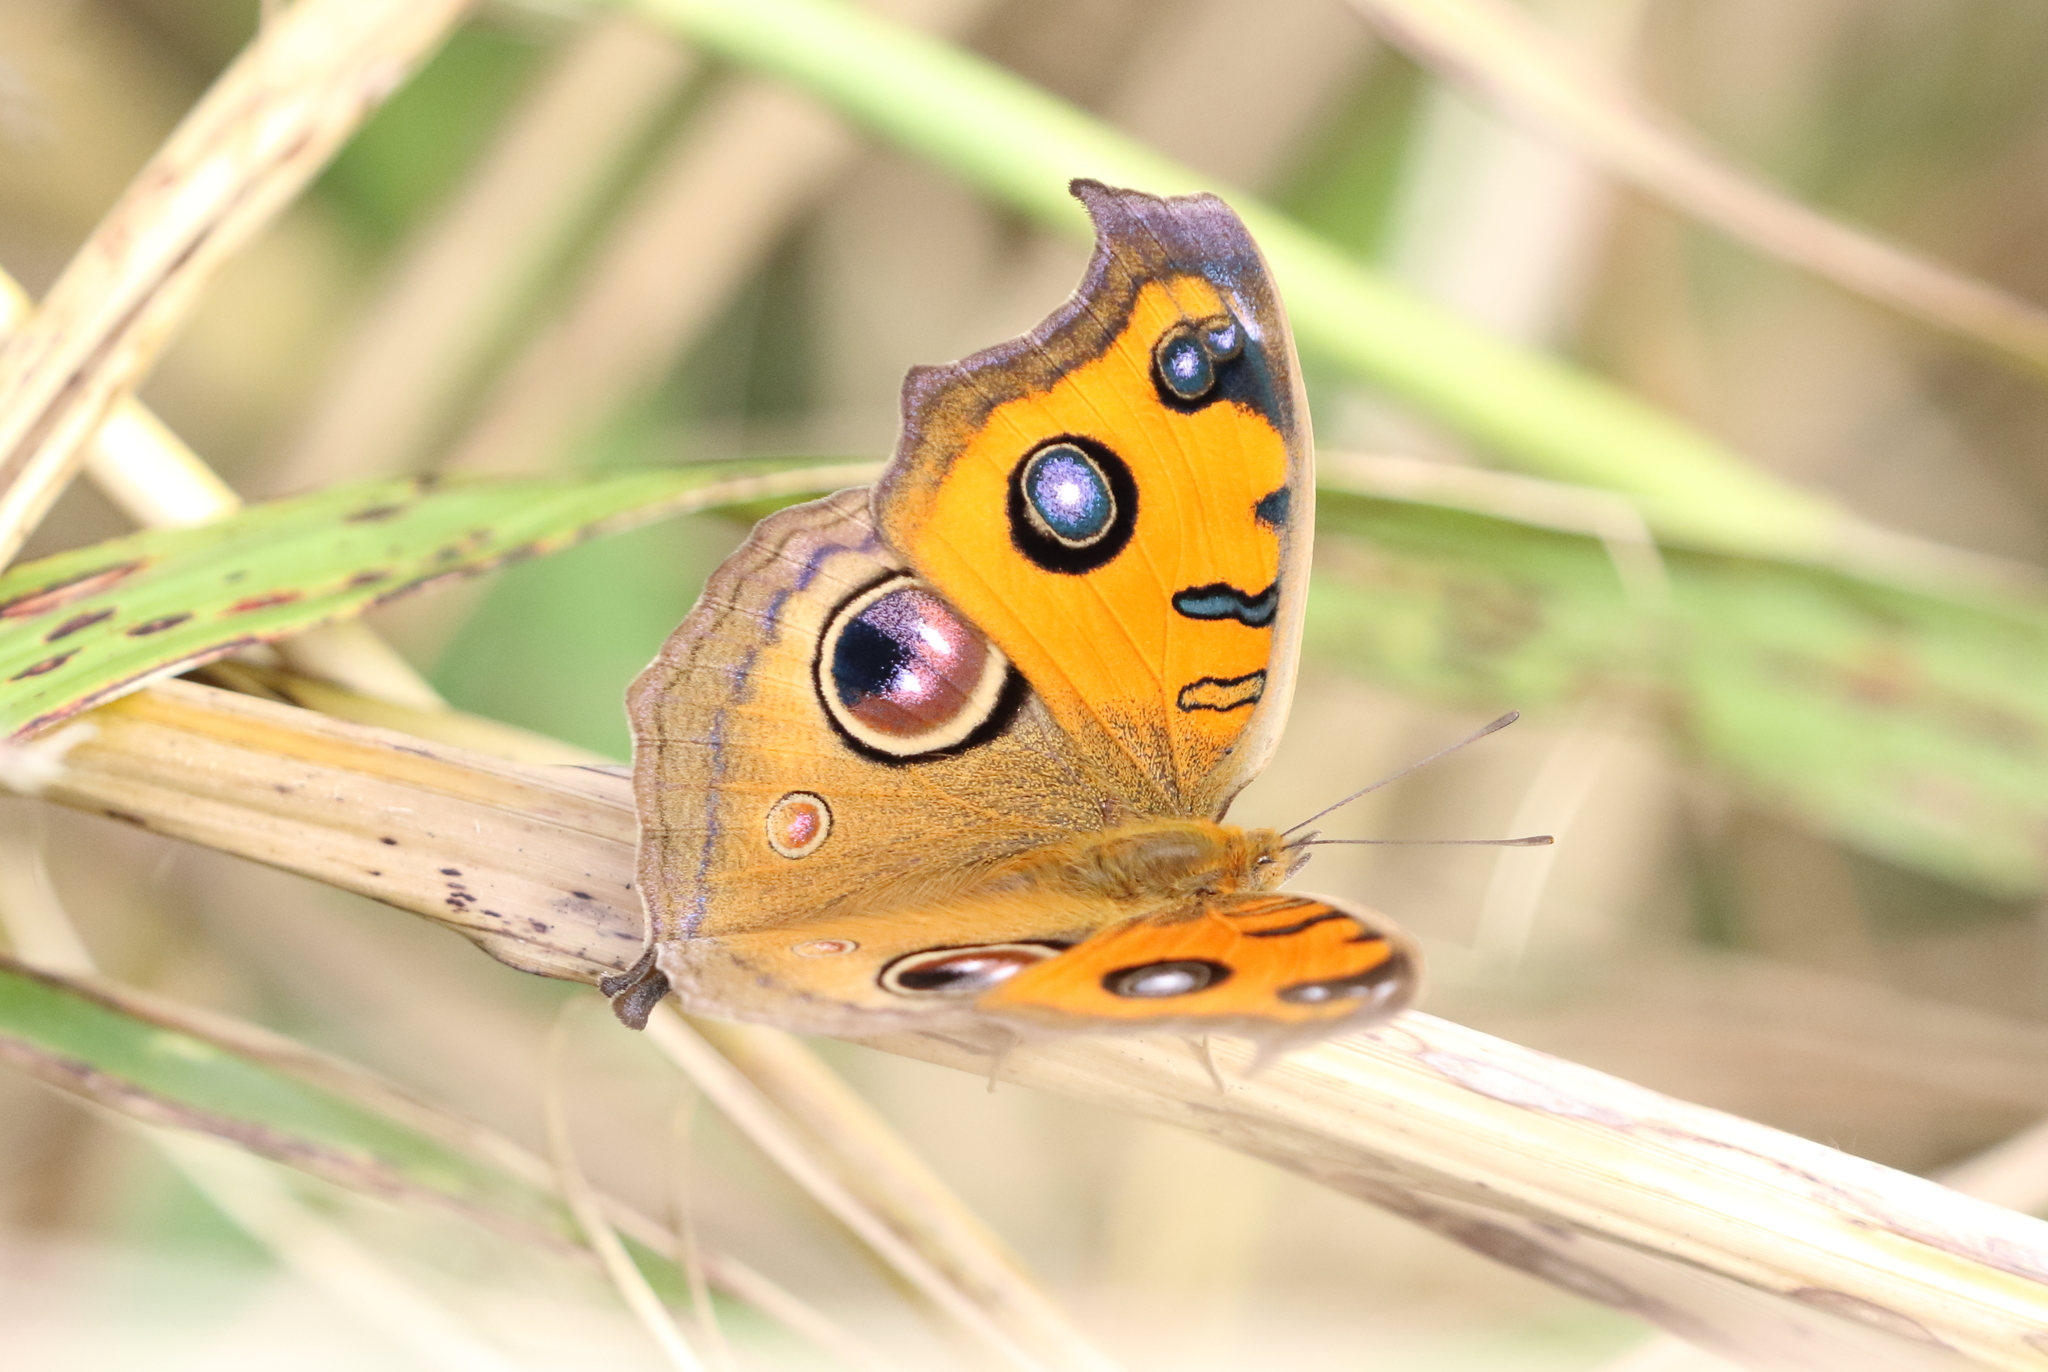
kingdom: Animalia
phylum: Arthropoda
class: Insecta
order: Lepidoptera
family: Nymphalidae
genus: Junonia
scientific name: Junonia almana
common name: Peacock pansy
